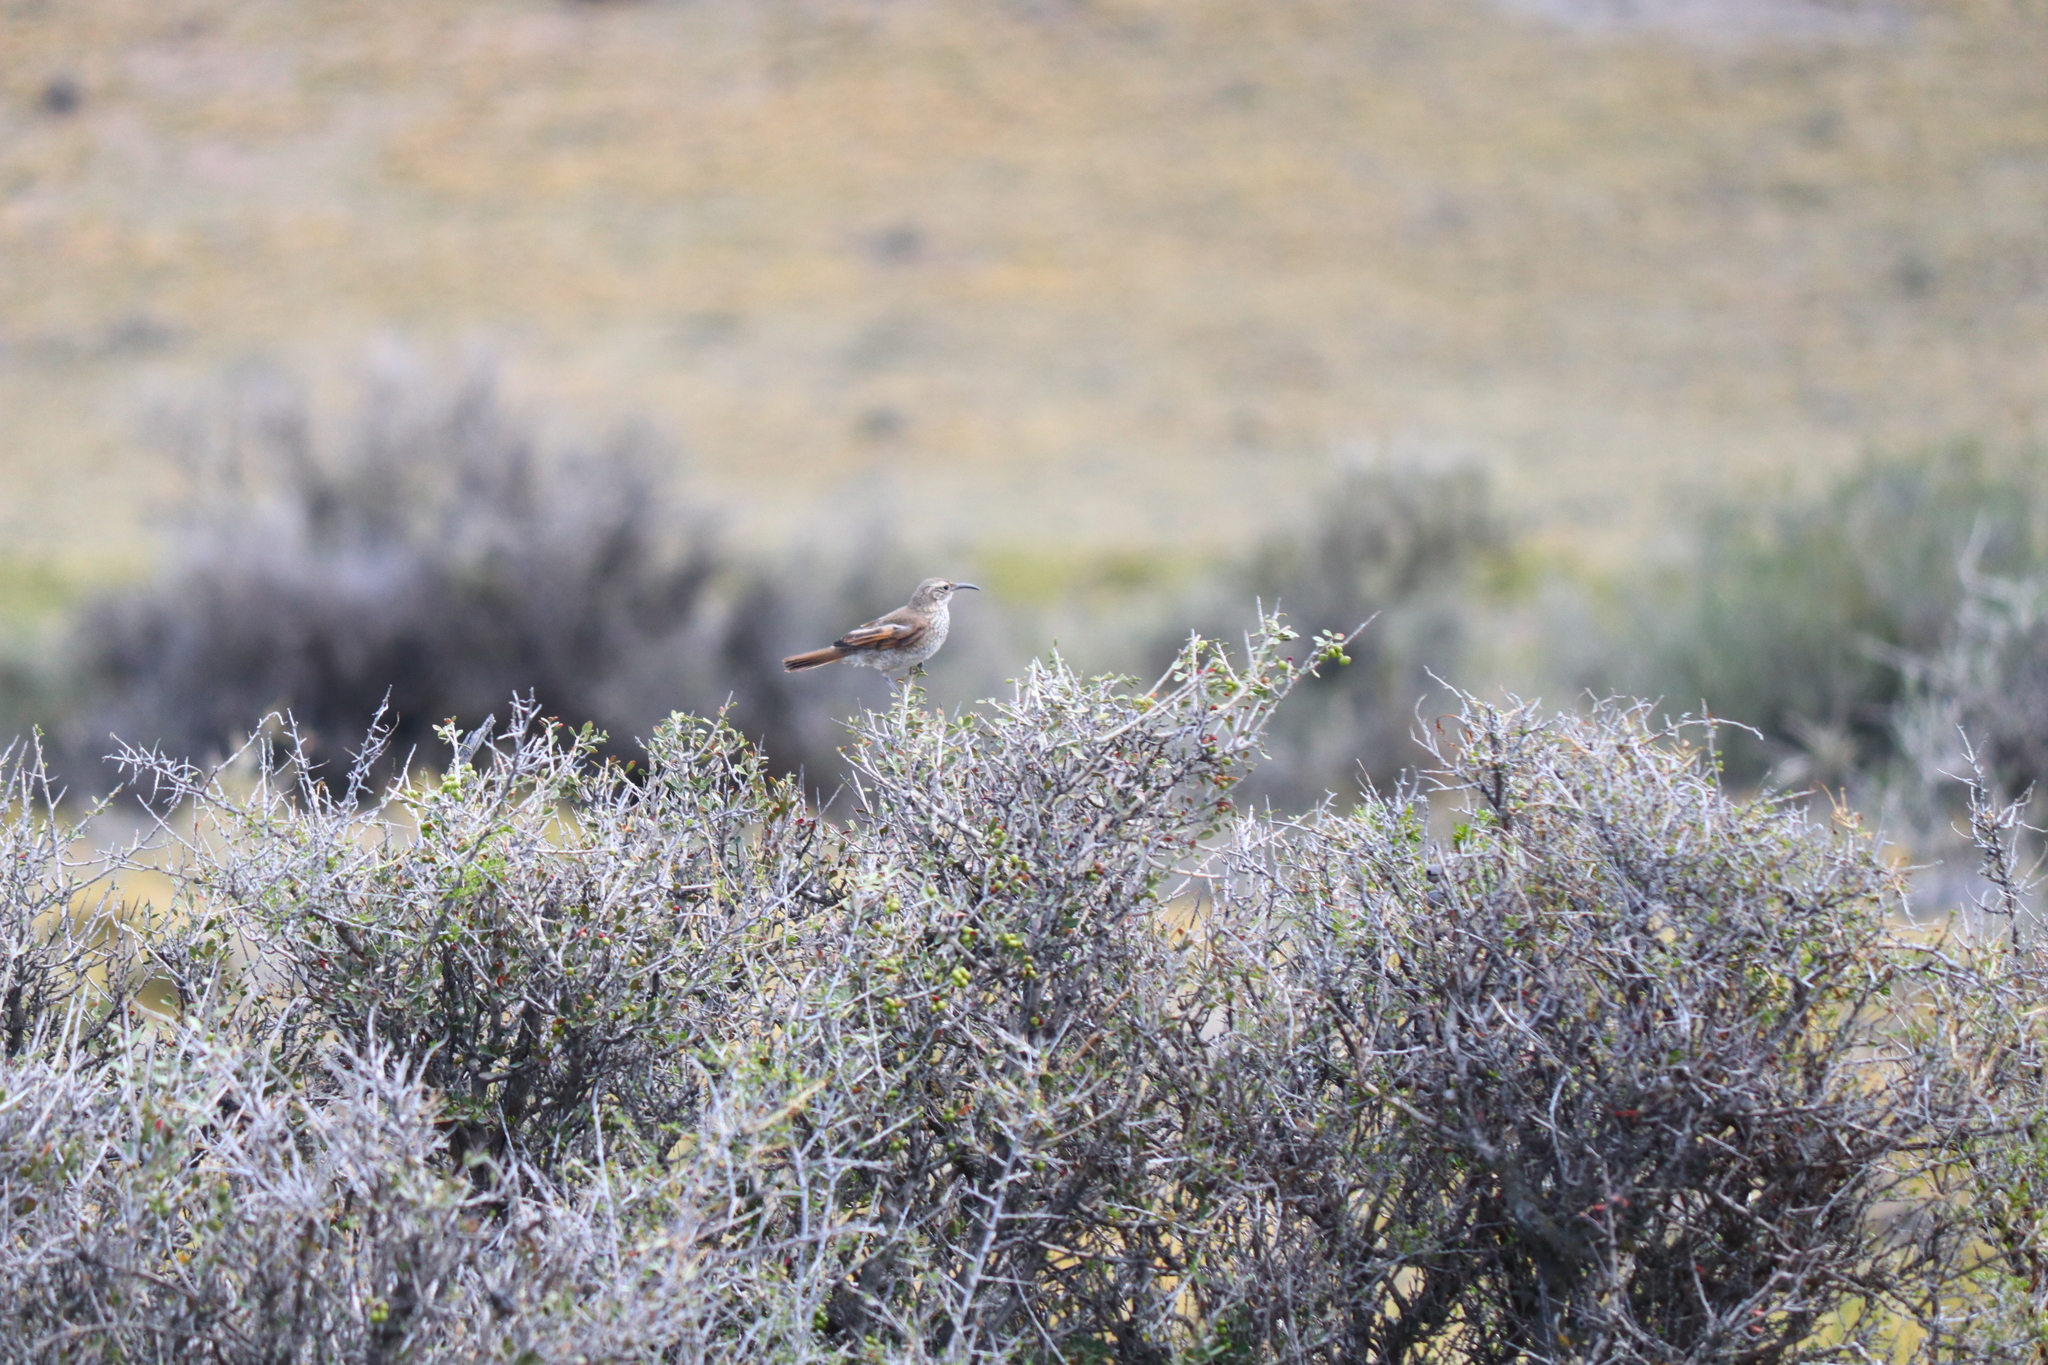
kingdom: Animalia
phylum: Chordata
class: Aves
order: Passeriformes
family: Furnariidae
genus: Upucerthia
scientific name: Upucerthia dumetaria
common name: Scale-throated earthcreeper
